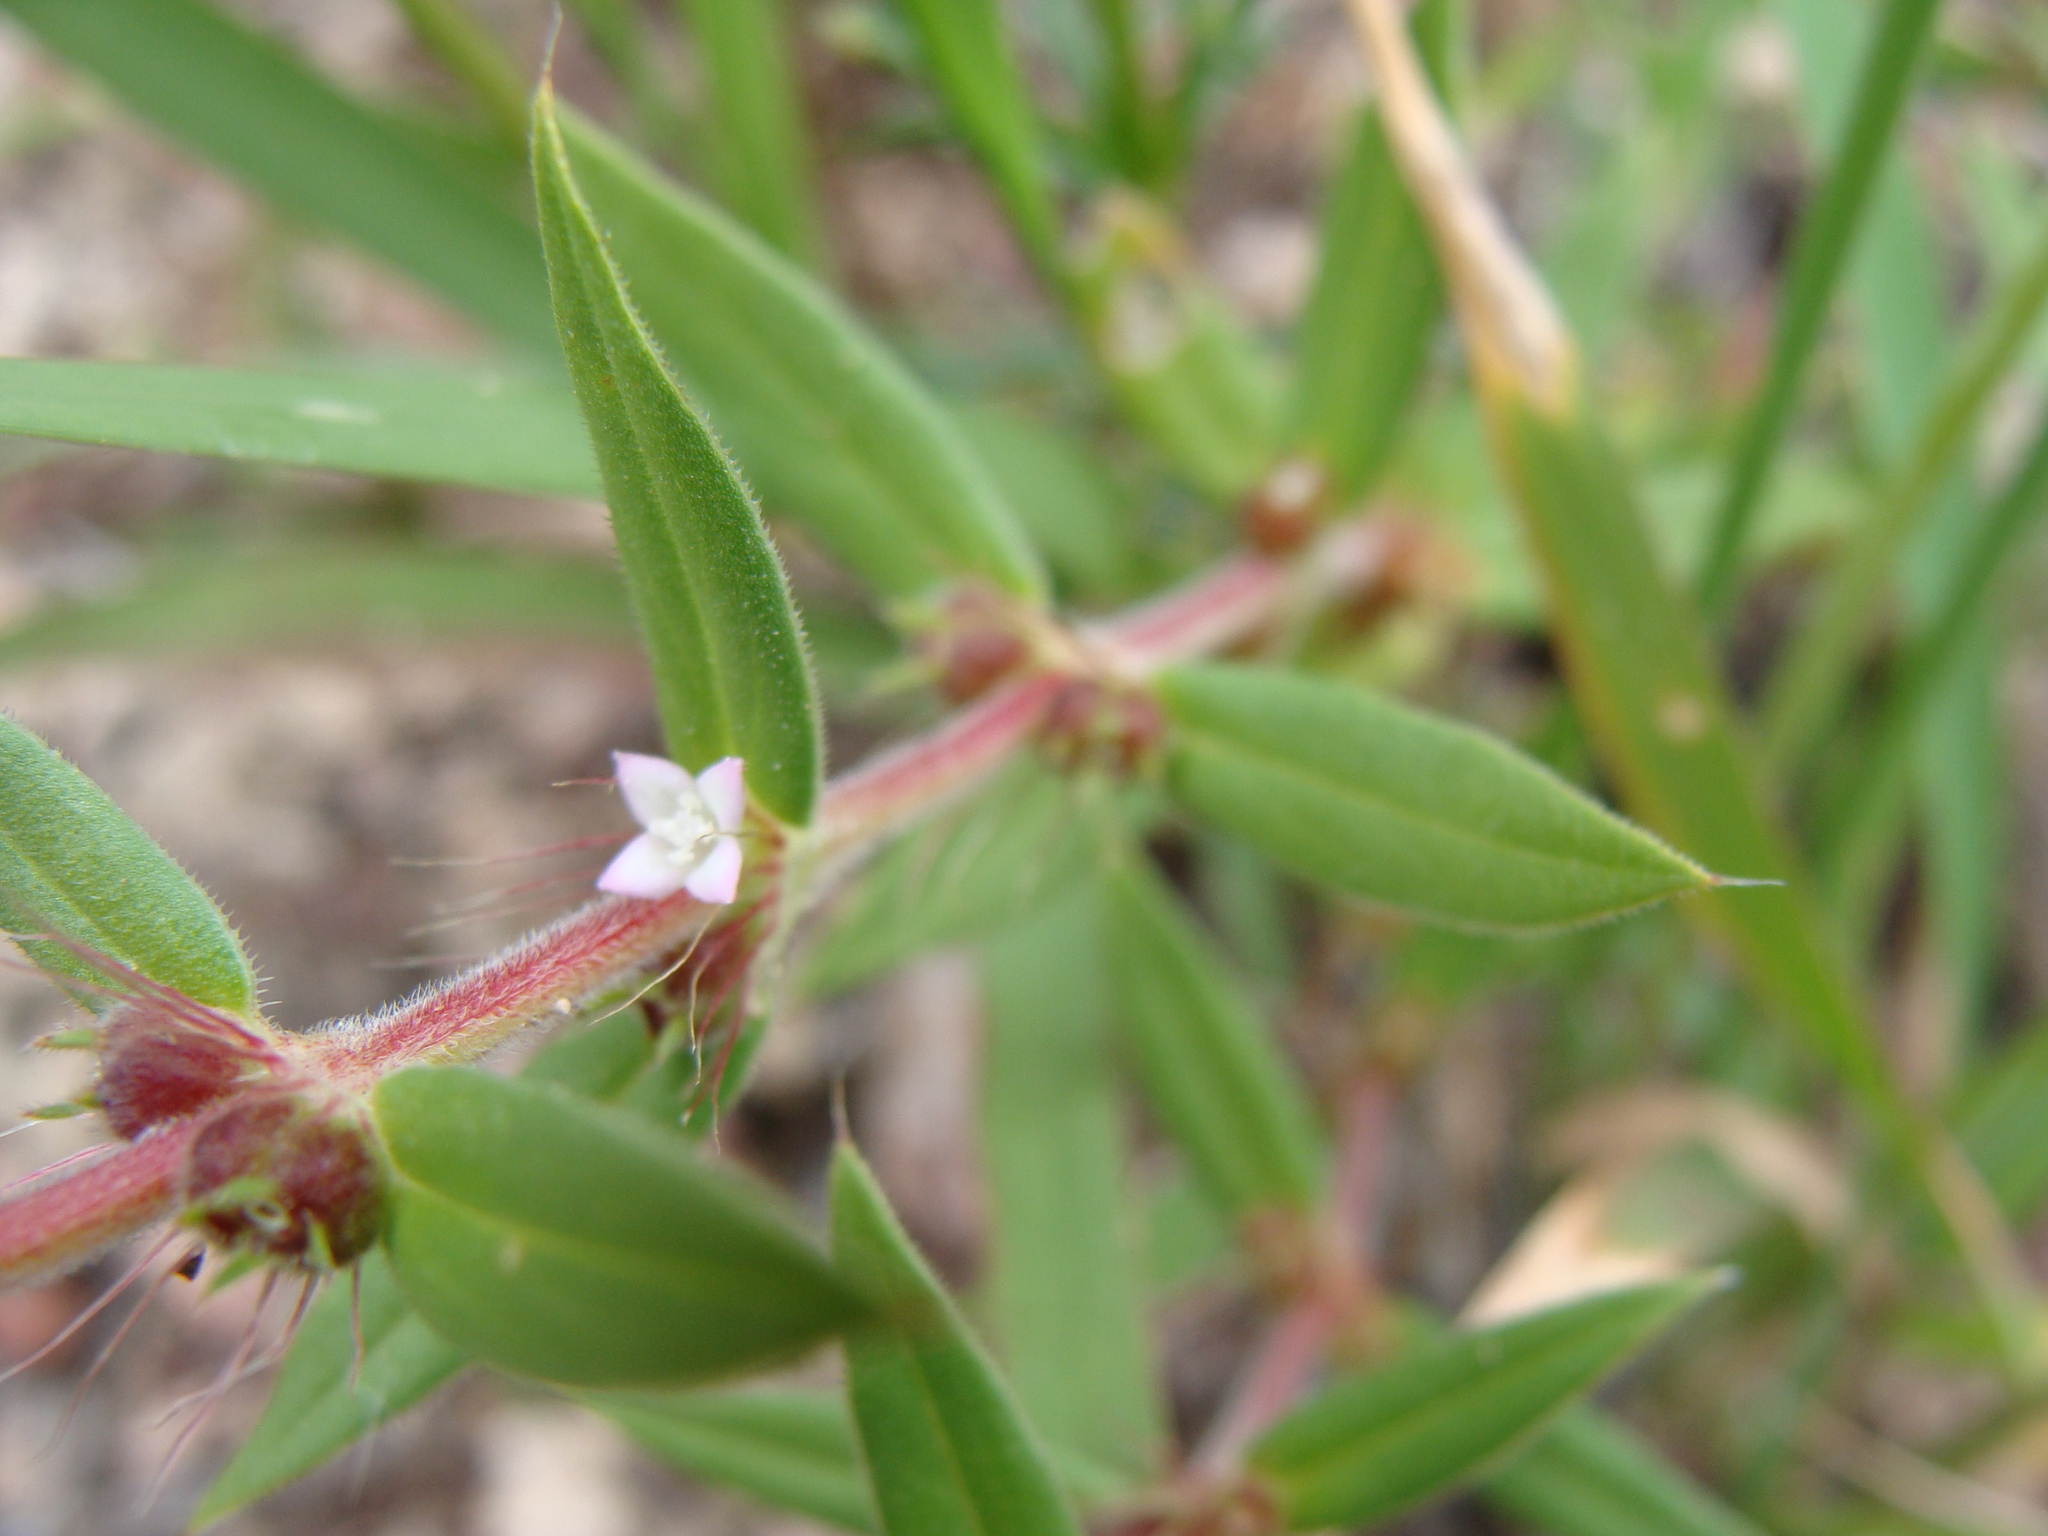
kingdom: Plantae
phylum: Tracheophyta
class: Magnoliopsida
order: Gentianales
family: Rubiaceae
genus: Hexasepalum
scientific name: Hexasepalum teres
